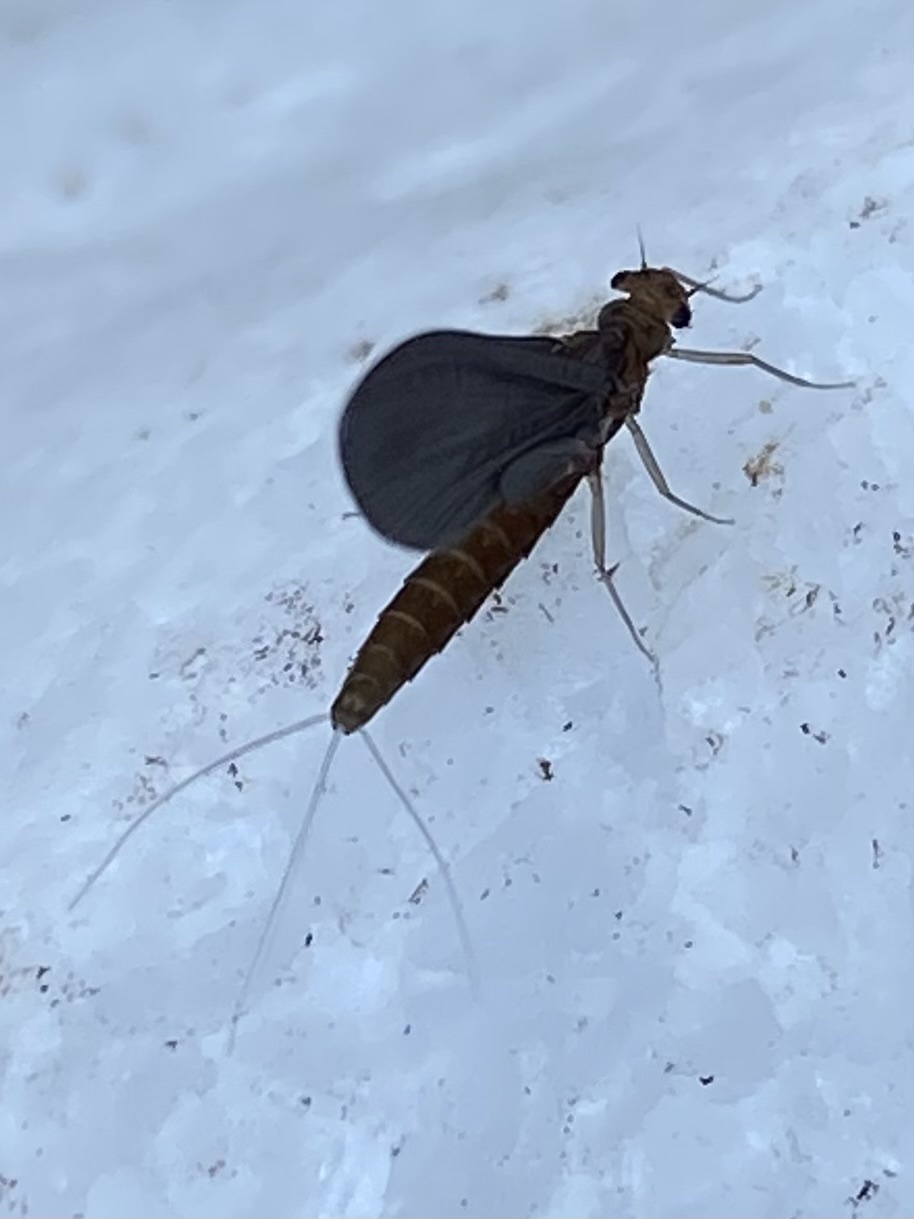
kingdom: Animalia
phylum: Arthropoda
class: Insecta
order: Ephemeroptera
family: Leptophlebiidae
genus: Neoleptophlebia
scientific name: Neoleptophlebia
